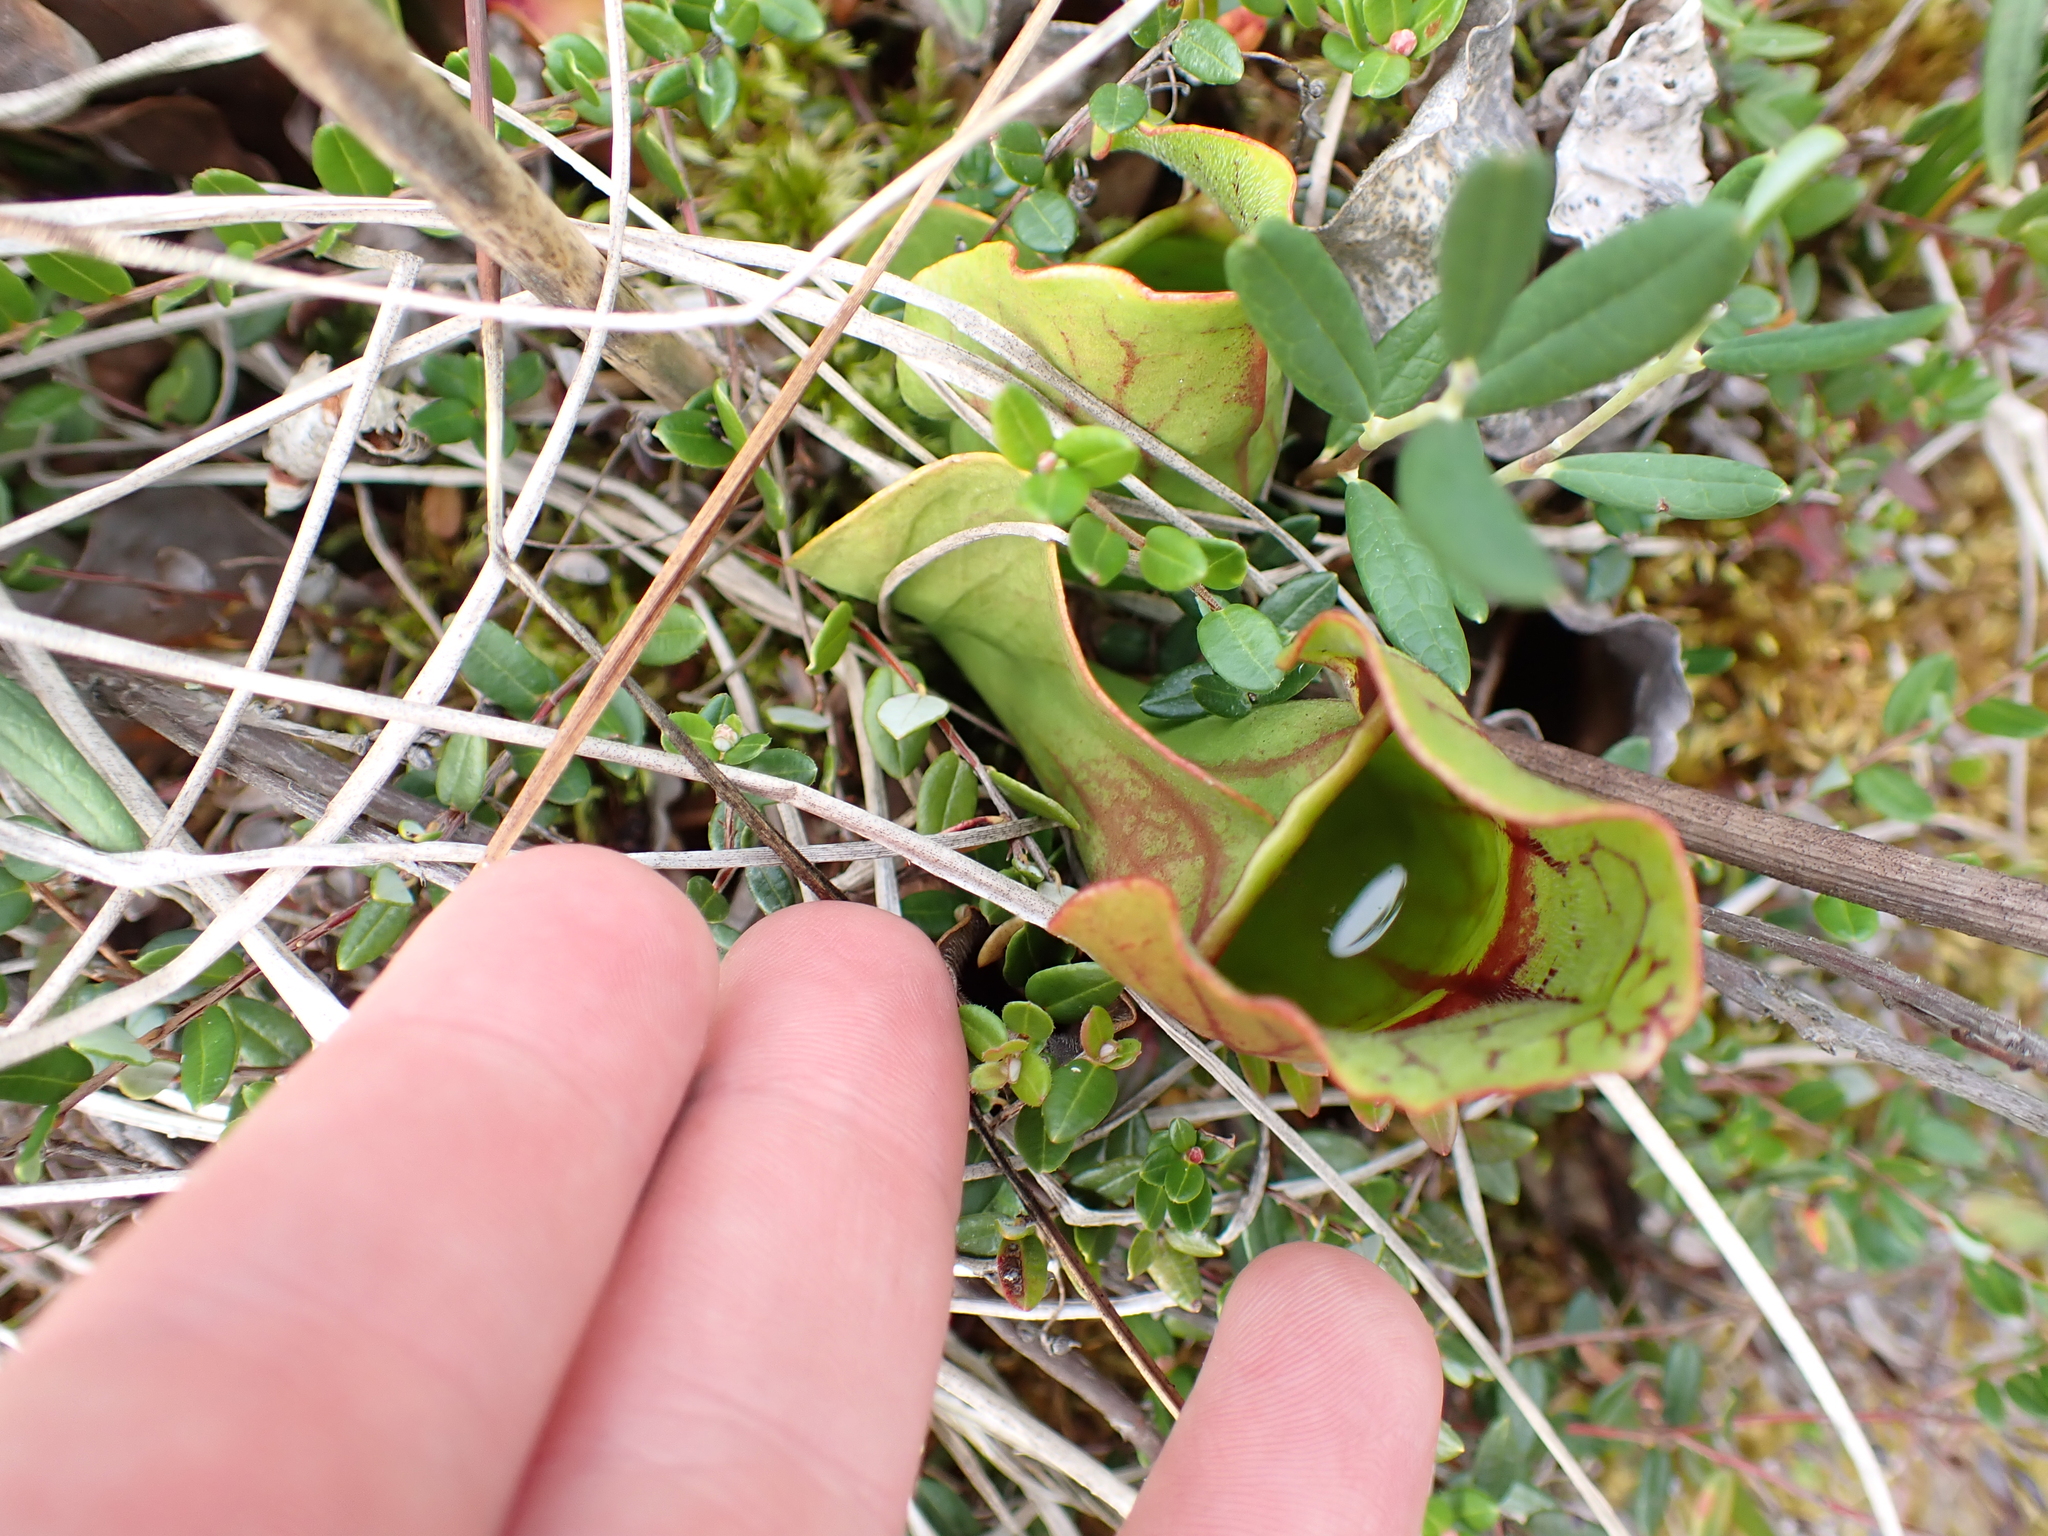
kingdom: Plantae
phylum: Tracheophyta
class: Magnoliopsida
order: Ericales
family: Sarraceniaceae
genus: Sarracenia
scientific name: Sarracenia purpurea
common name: Pitcherplant
